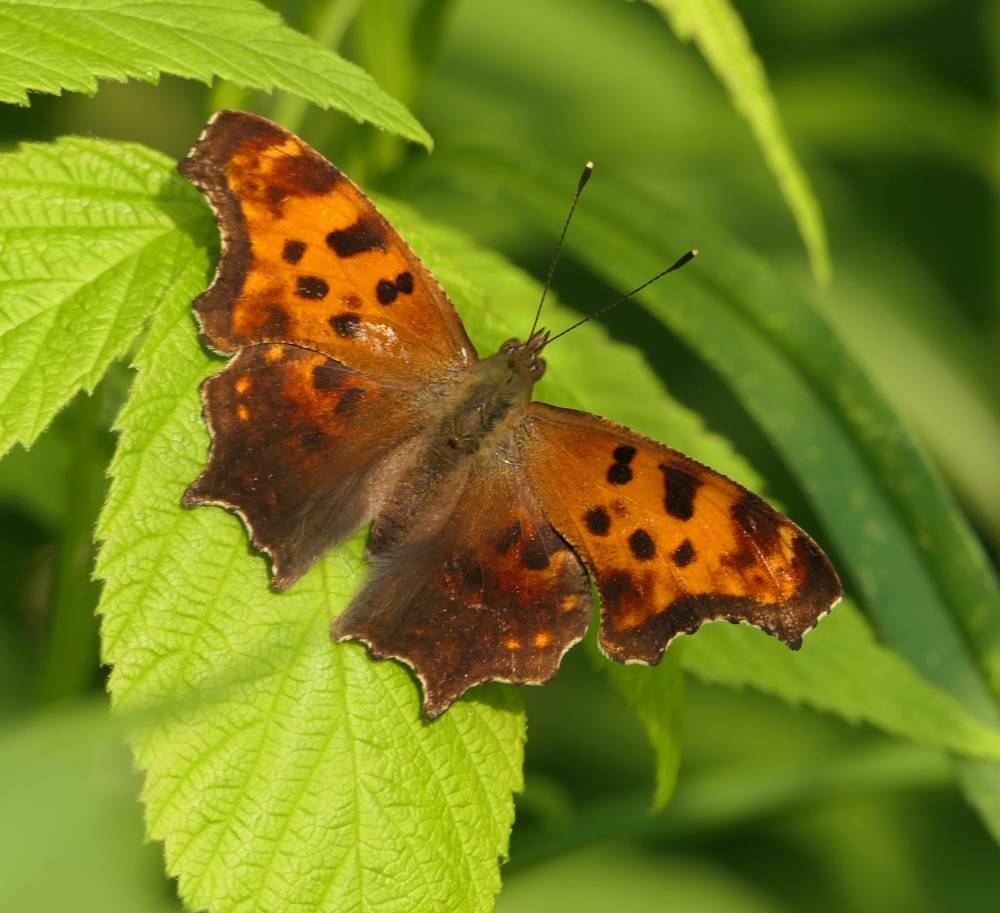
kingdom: Animalia
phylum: Arthropoda
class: Insecta
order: Lepidoptera
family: Nymphalidae
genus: Polygonia
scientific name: Polygonia comma
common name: Eastern comma
